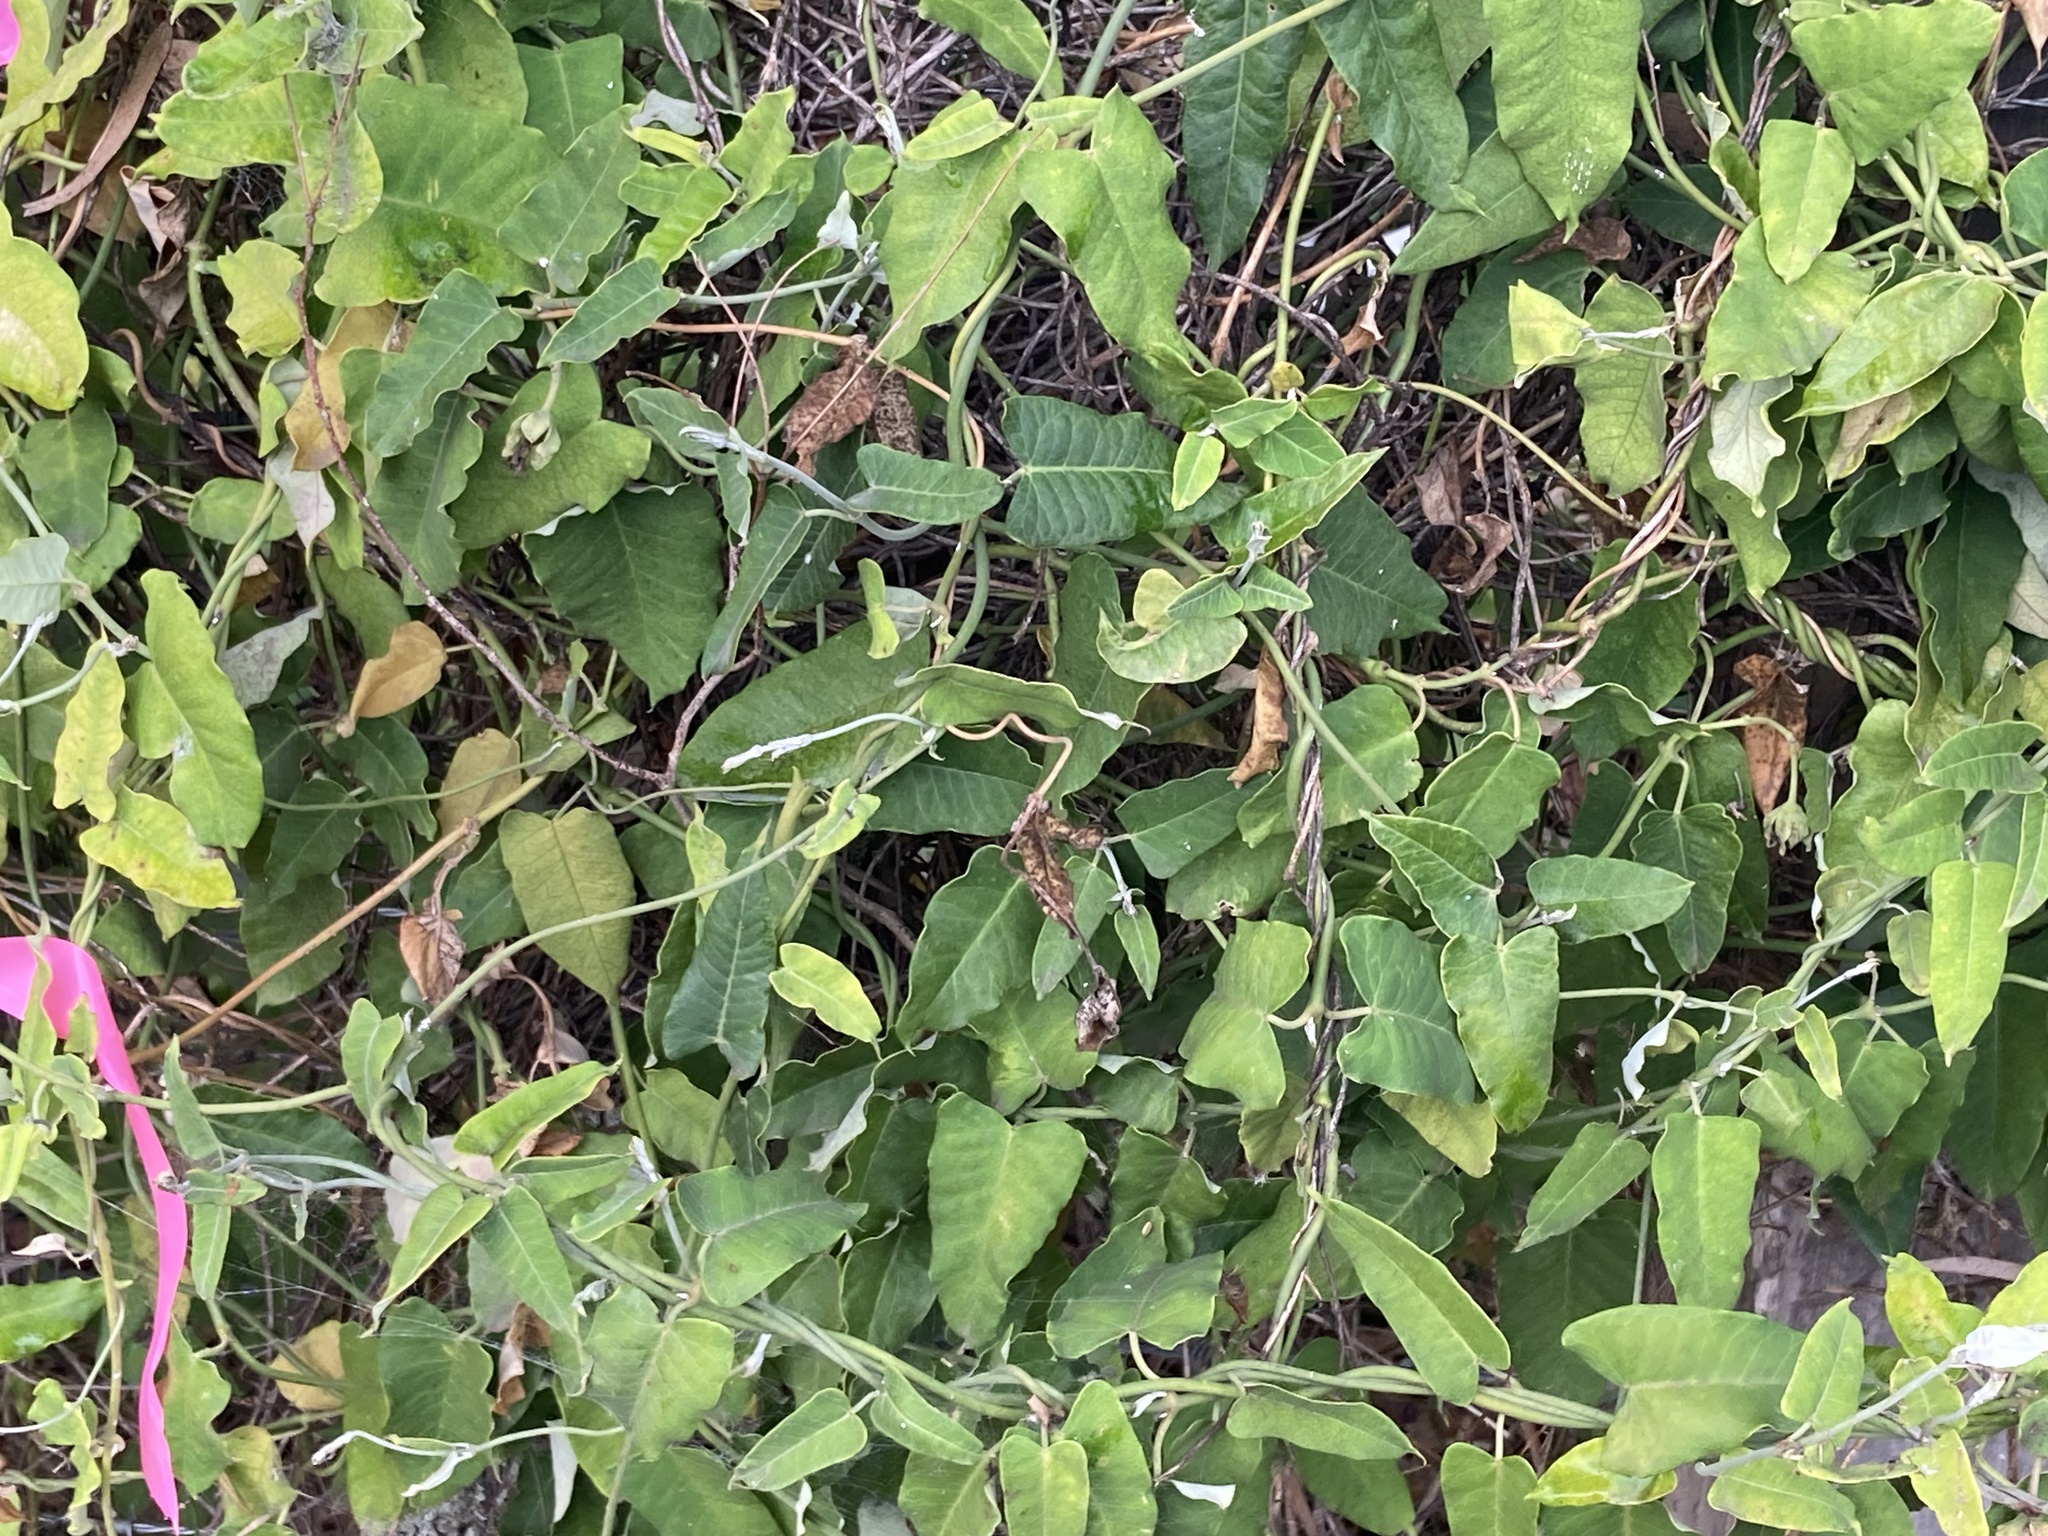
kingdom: Plantae
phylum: Tracheophyta
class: Magnoliopsida
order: Gentianales
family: Apocynaceae
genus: Araujia
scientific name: Araujia sericifera
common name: White bladderflower
